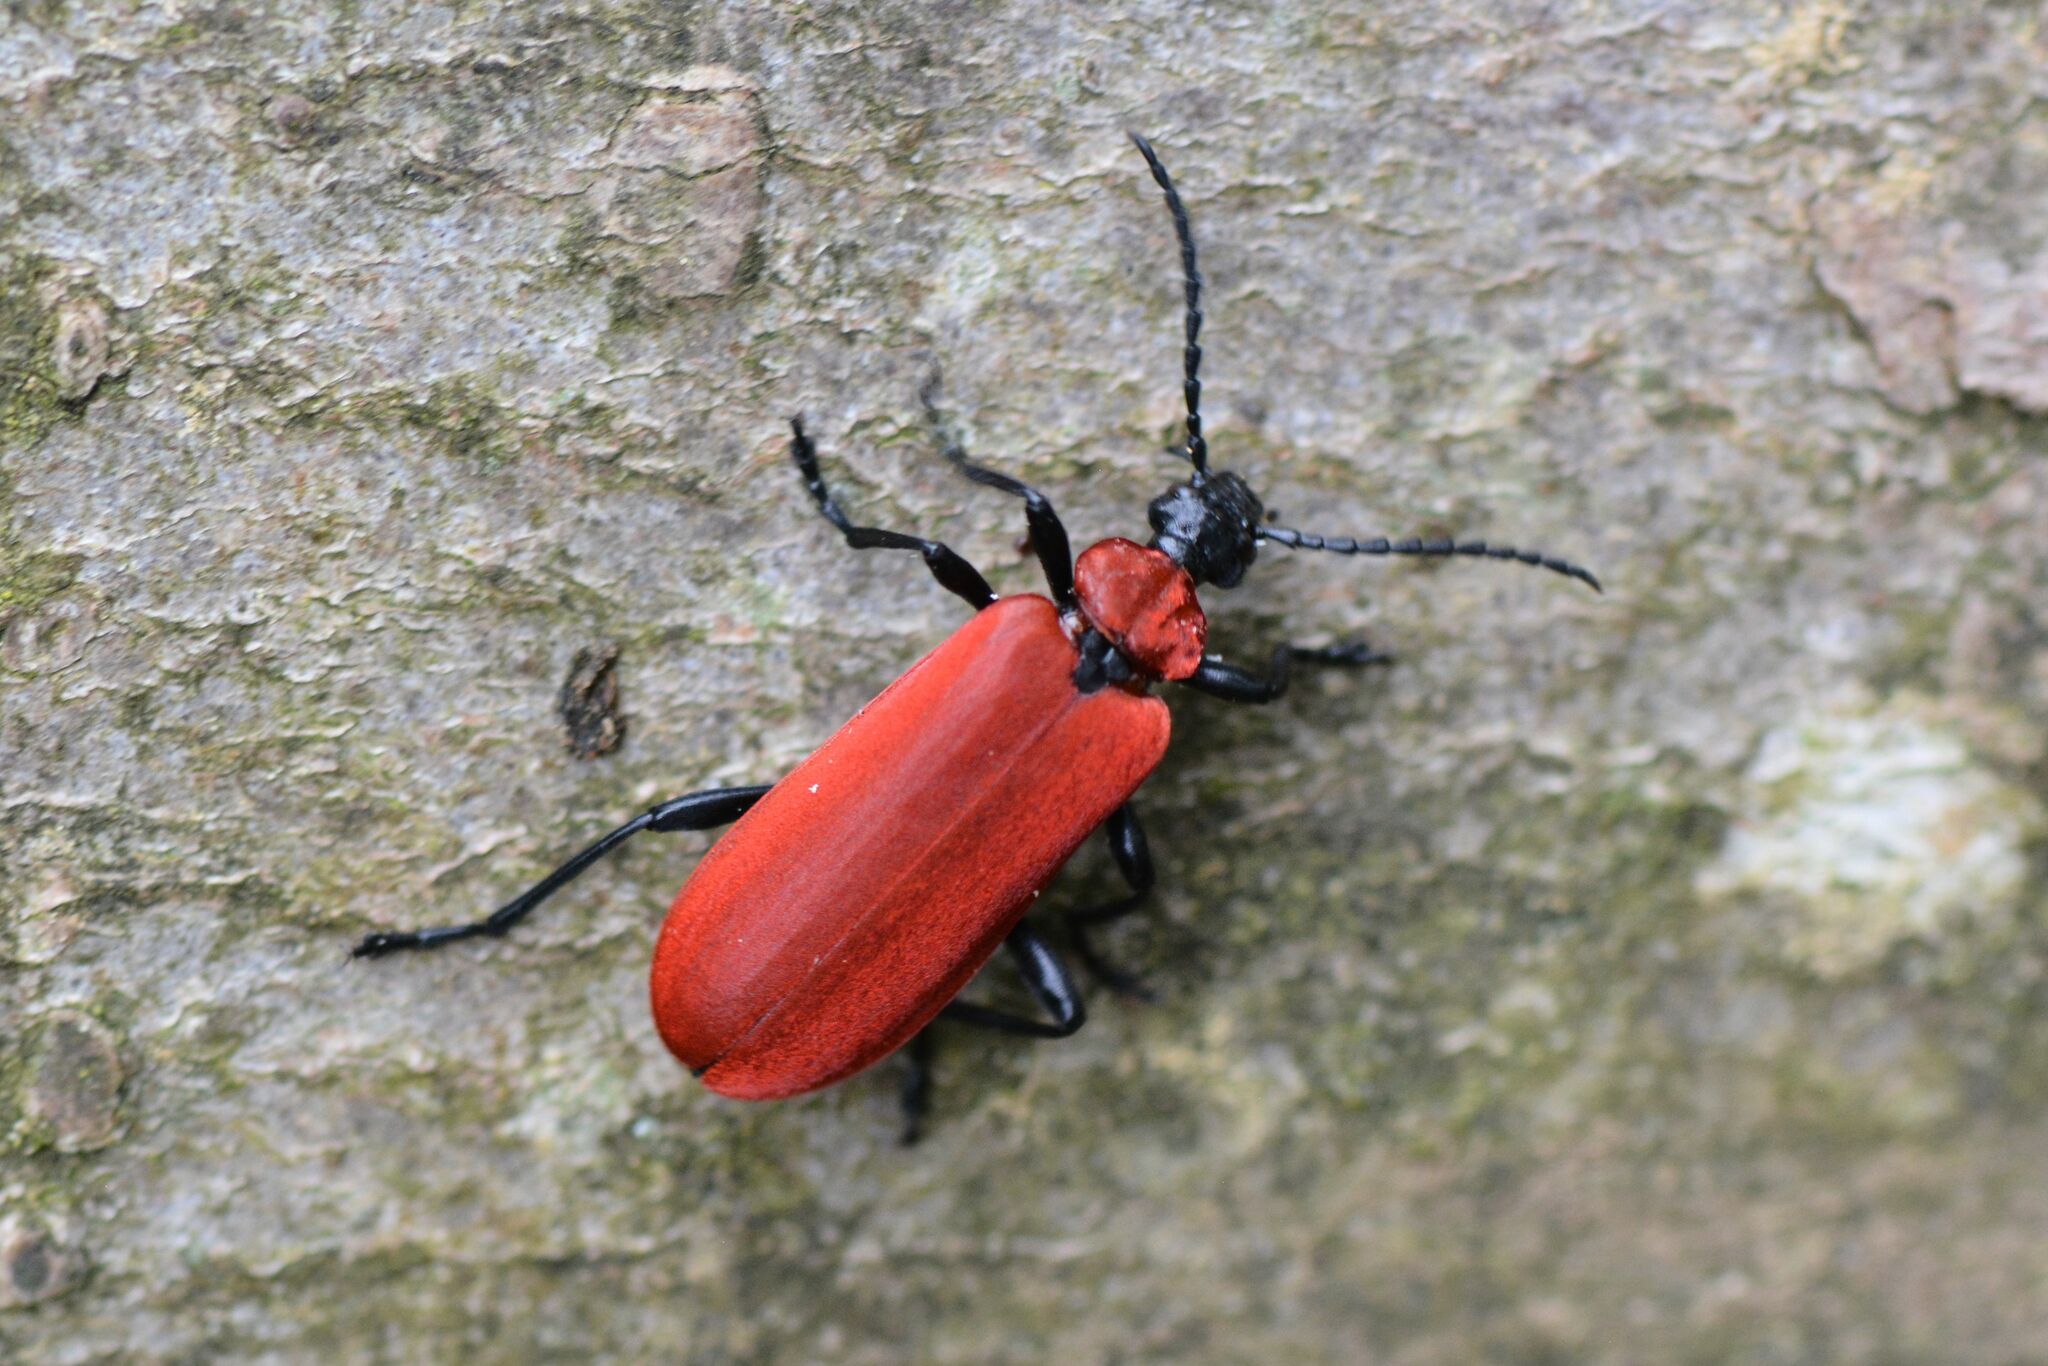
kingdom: Animalia
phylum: Arthropoda
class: Insecta
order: Coleoptera
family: Pyrochroidae
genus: Pyrochroa
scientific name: Pyrochroa coccinea
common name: Black-headed cardinal beetle
